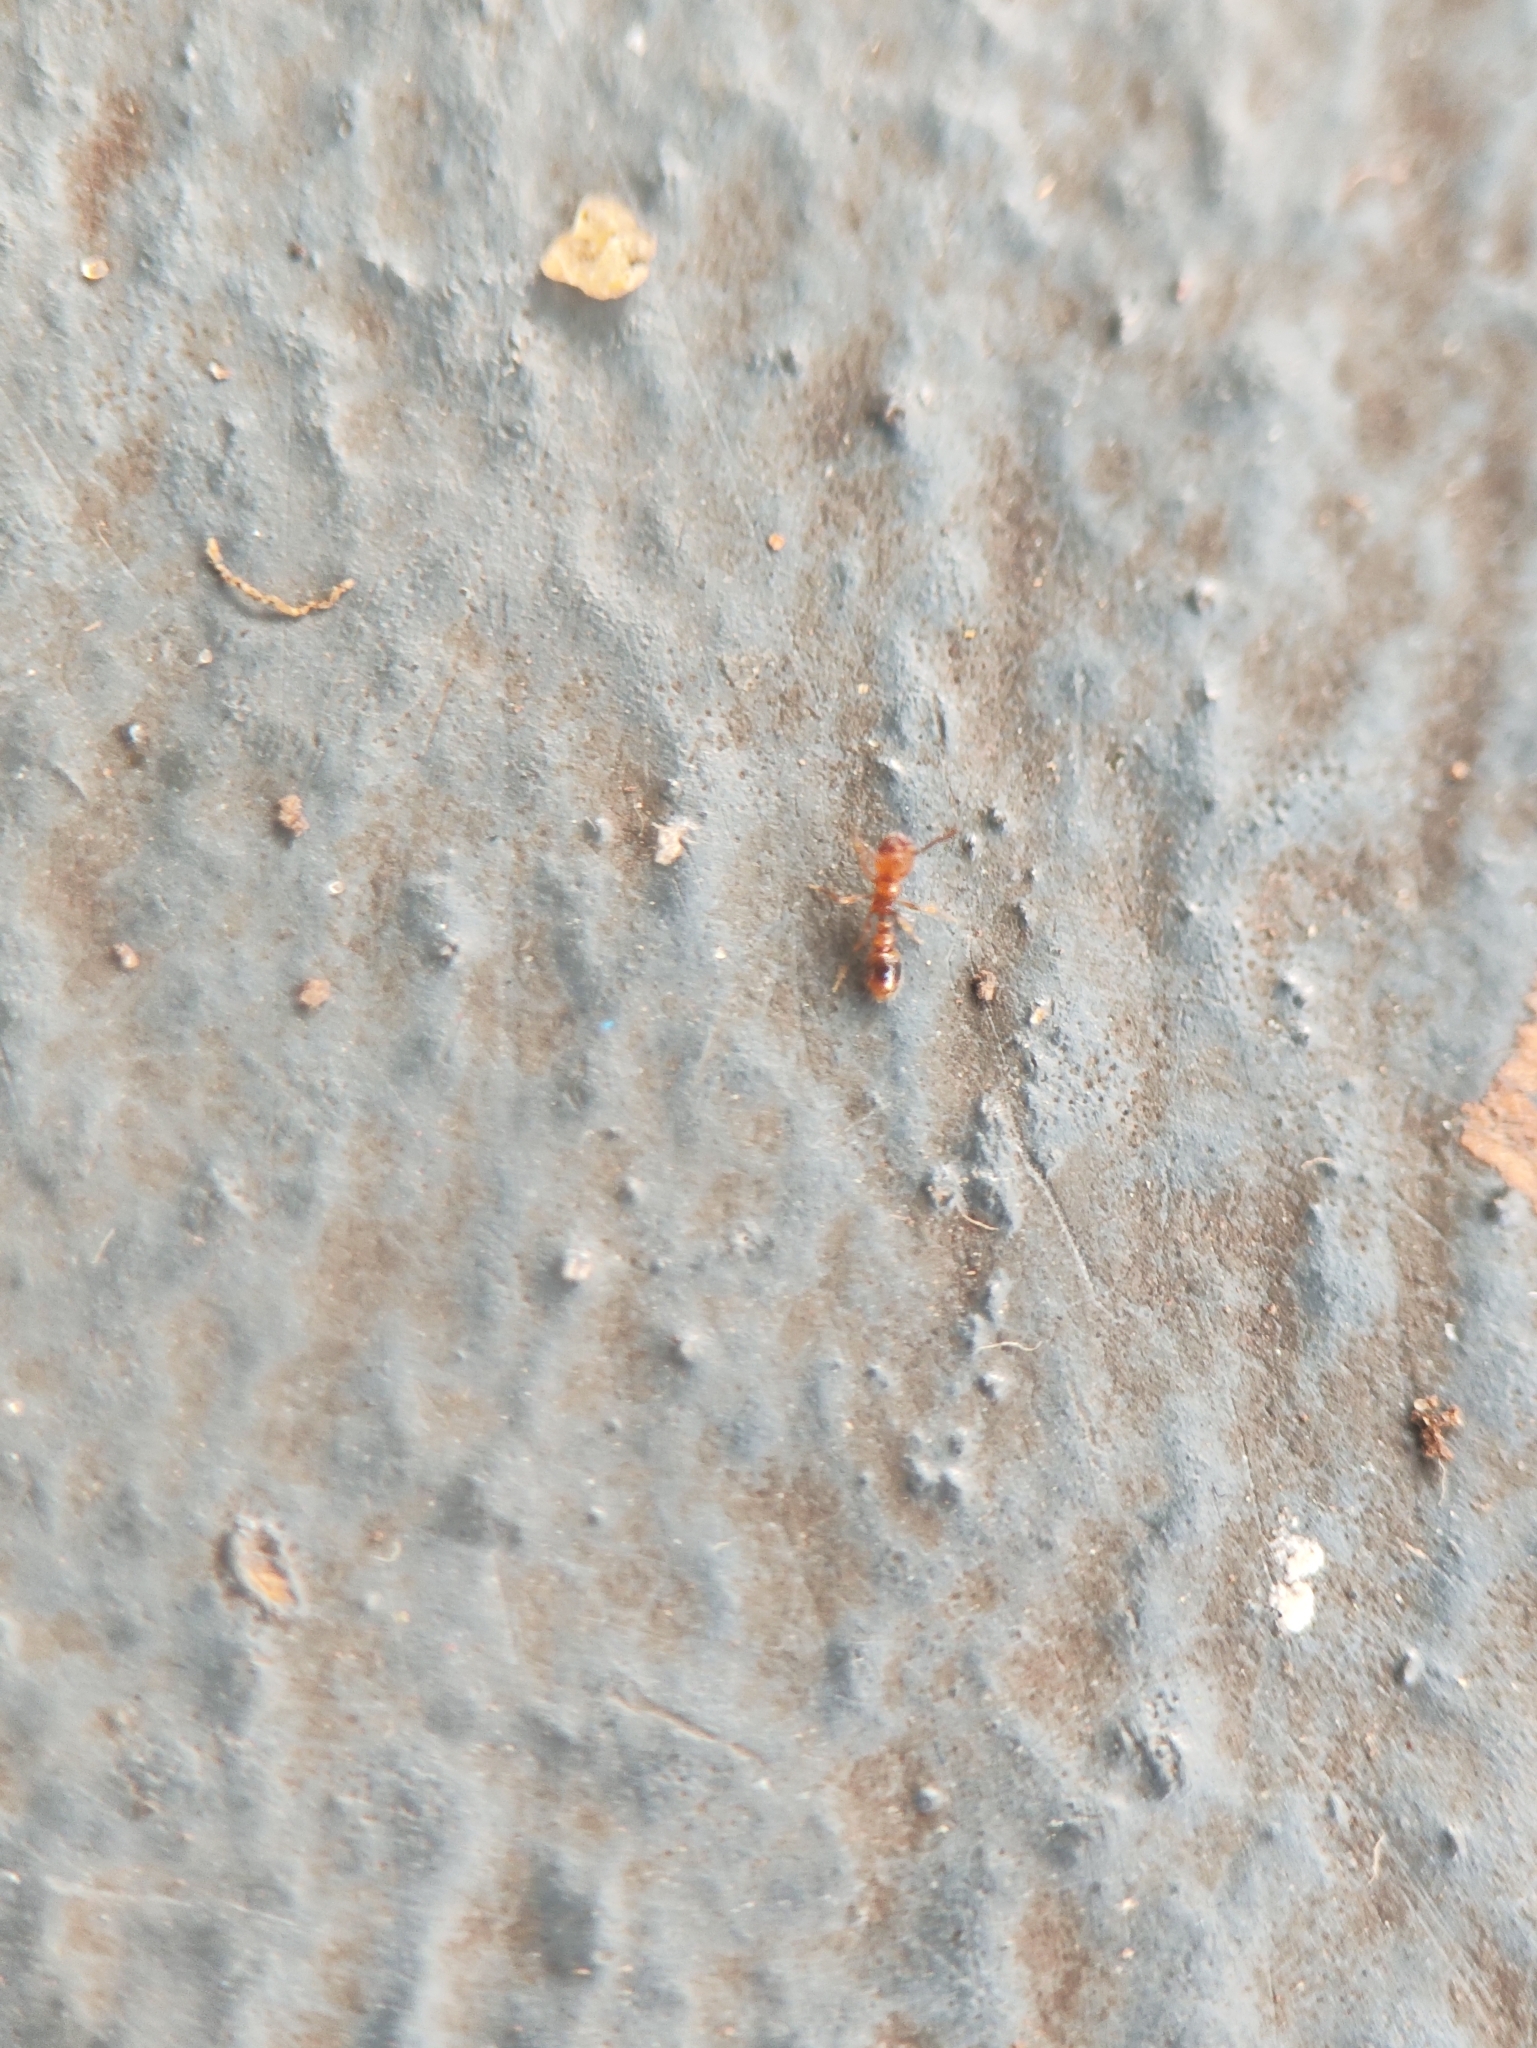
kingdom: Animalia
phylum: Arthropoda
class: Insecta
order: Hymenoptera
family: Formicidae
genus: Solenopsis
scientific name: Solenopsis globularia
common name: Ant
